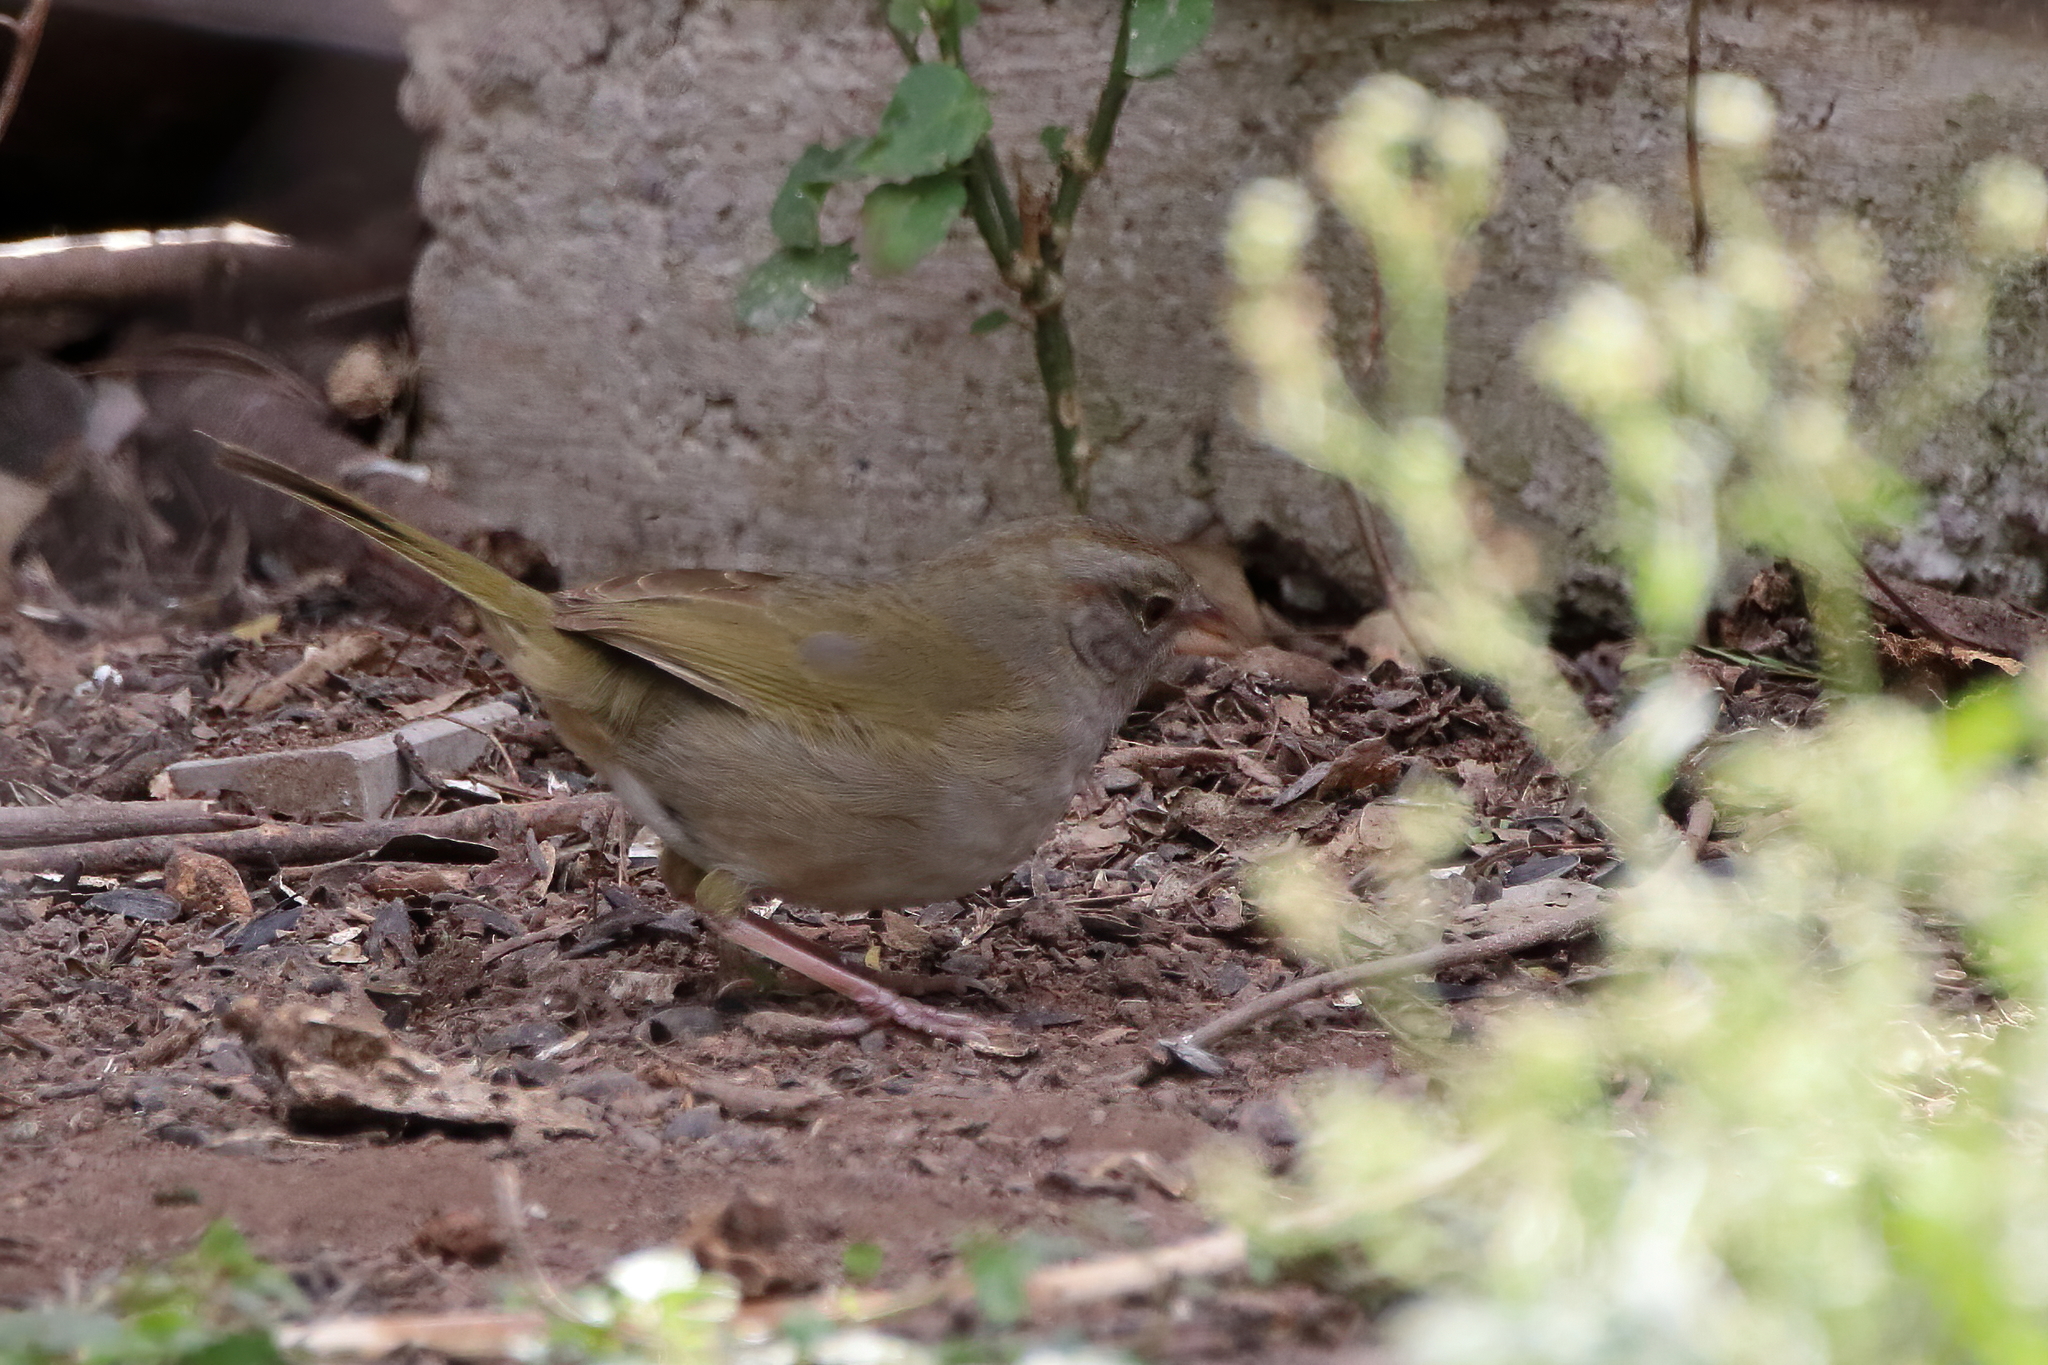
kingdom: Animalia
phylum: Chordata
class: Aves
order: Passeriformes
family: Passerellidae
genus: Arremonops
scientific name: Arremonops rufivirgatus
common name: Olive sparrow
